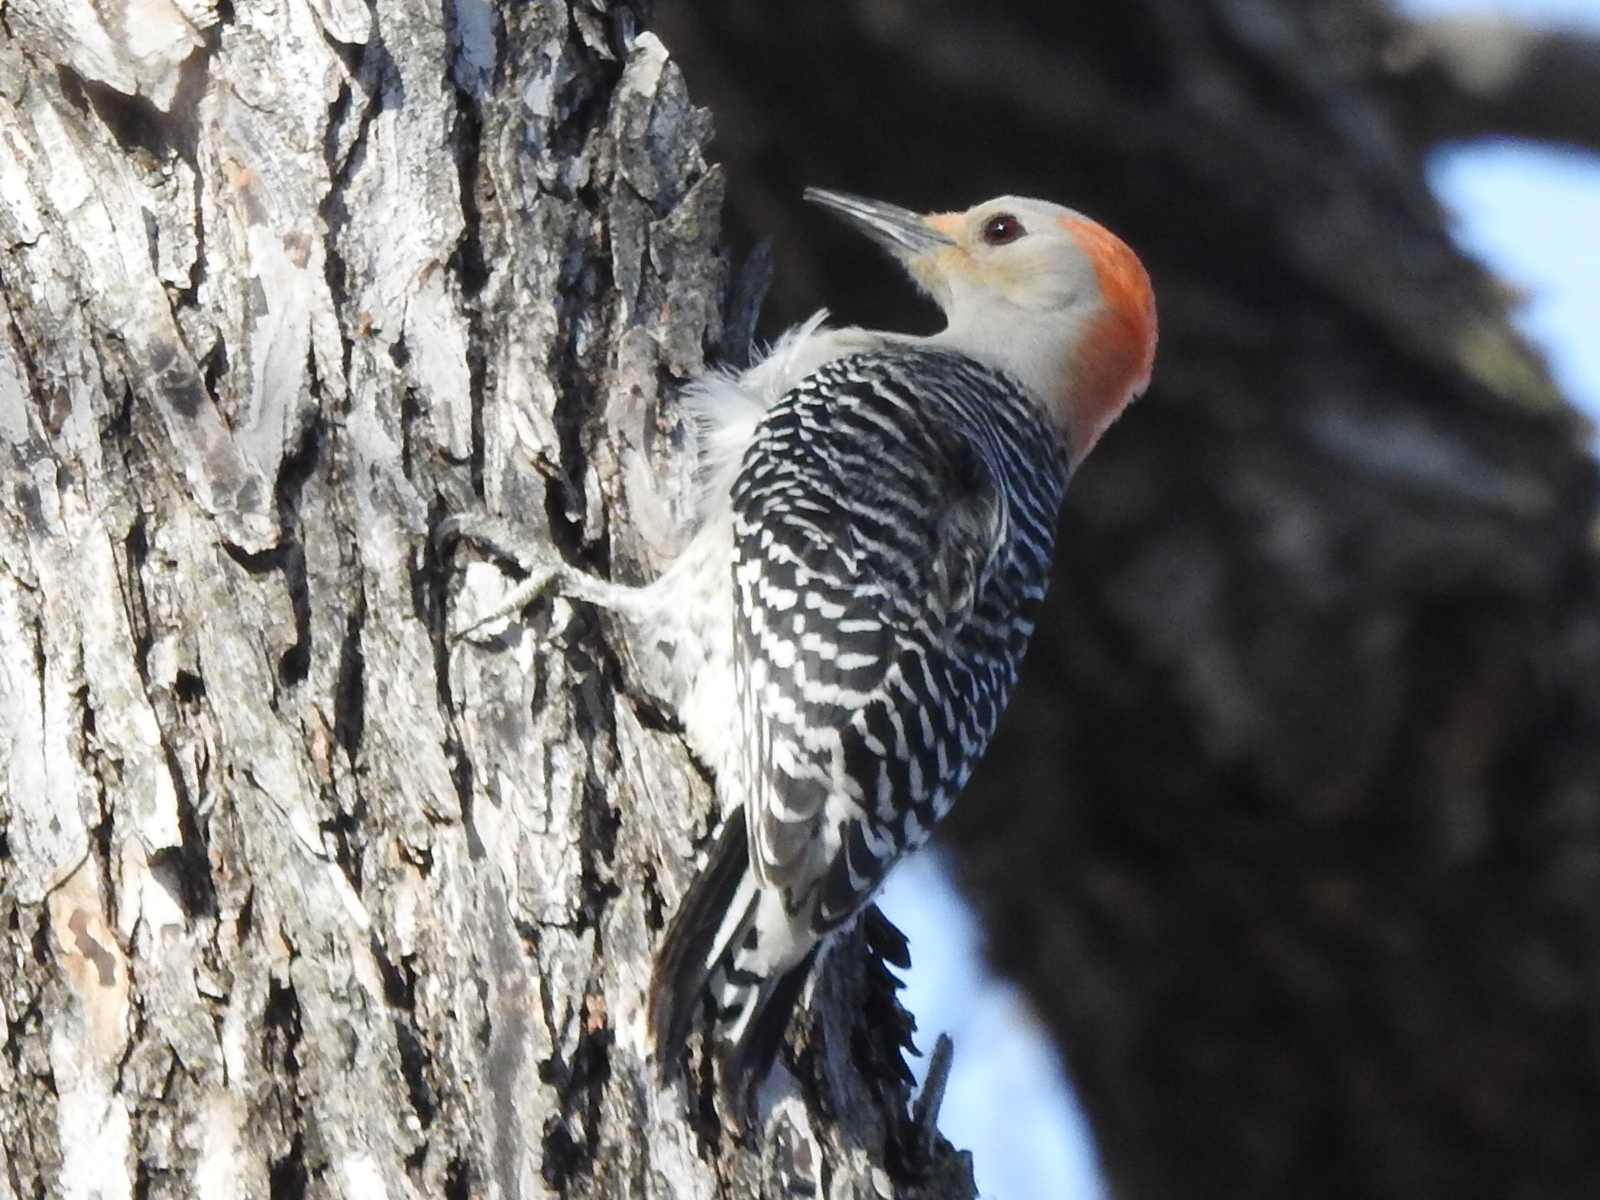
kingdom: Animalia
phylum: Chordata
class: Aves
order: Piciformes
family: Picidae
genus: Melanerpes
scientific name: Melanerpes carolinus
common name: Red-bellied woodpecker
